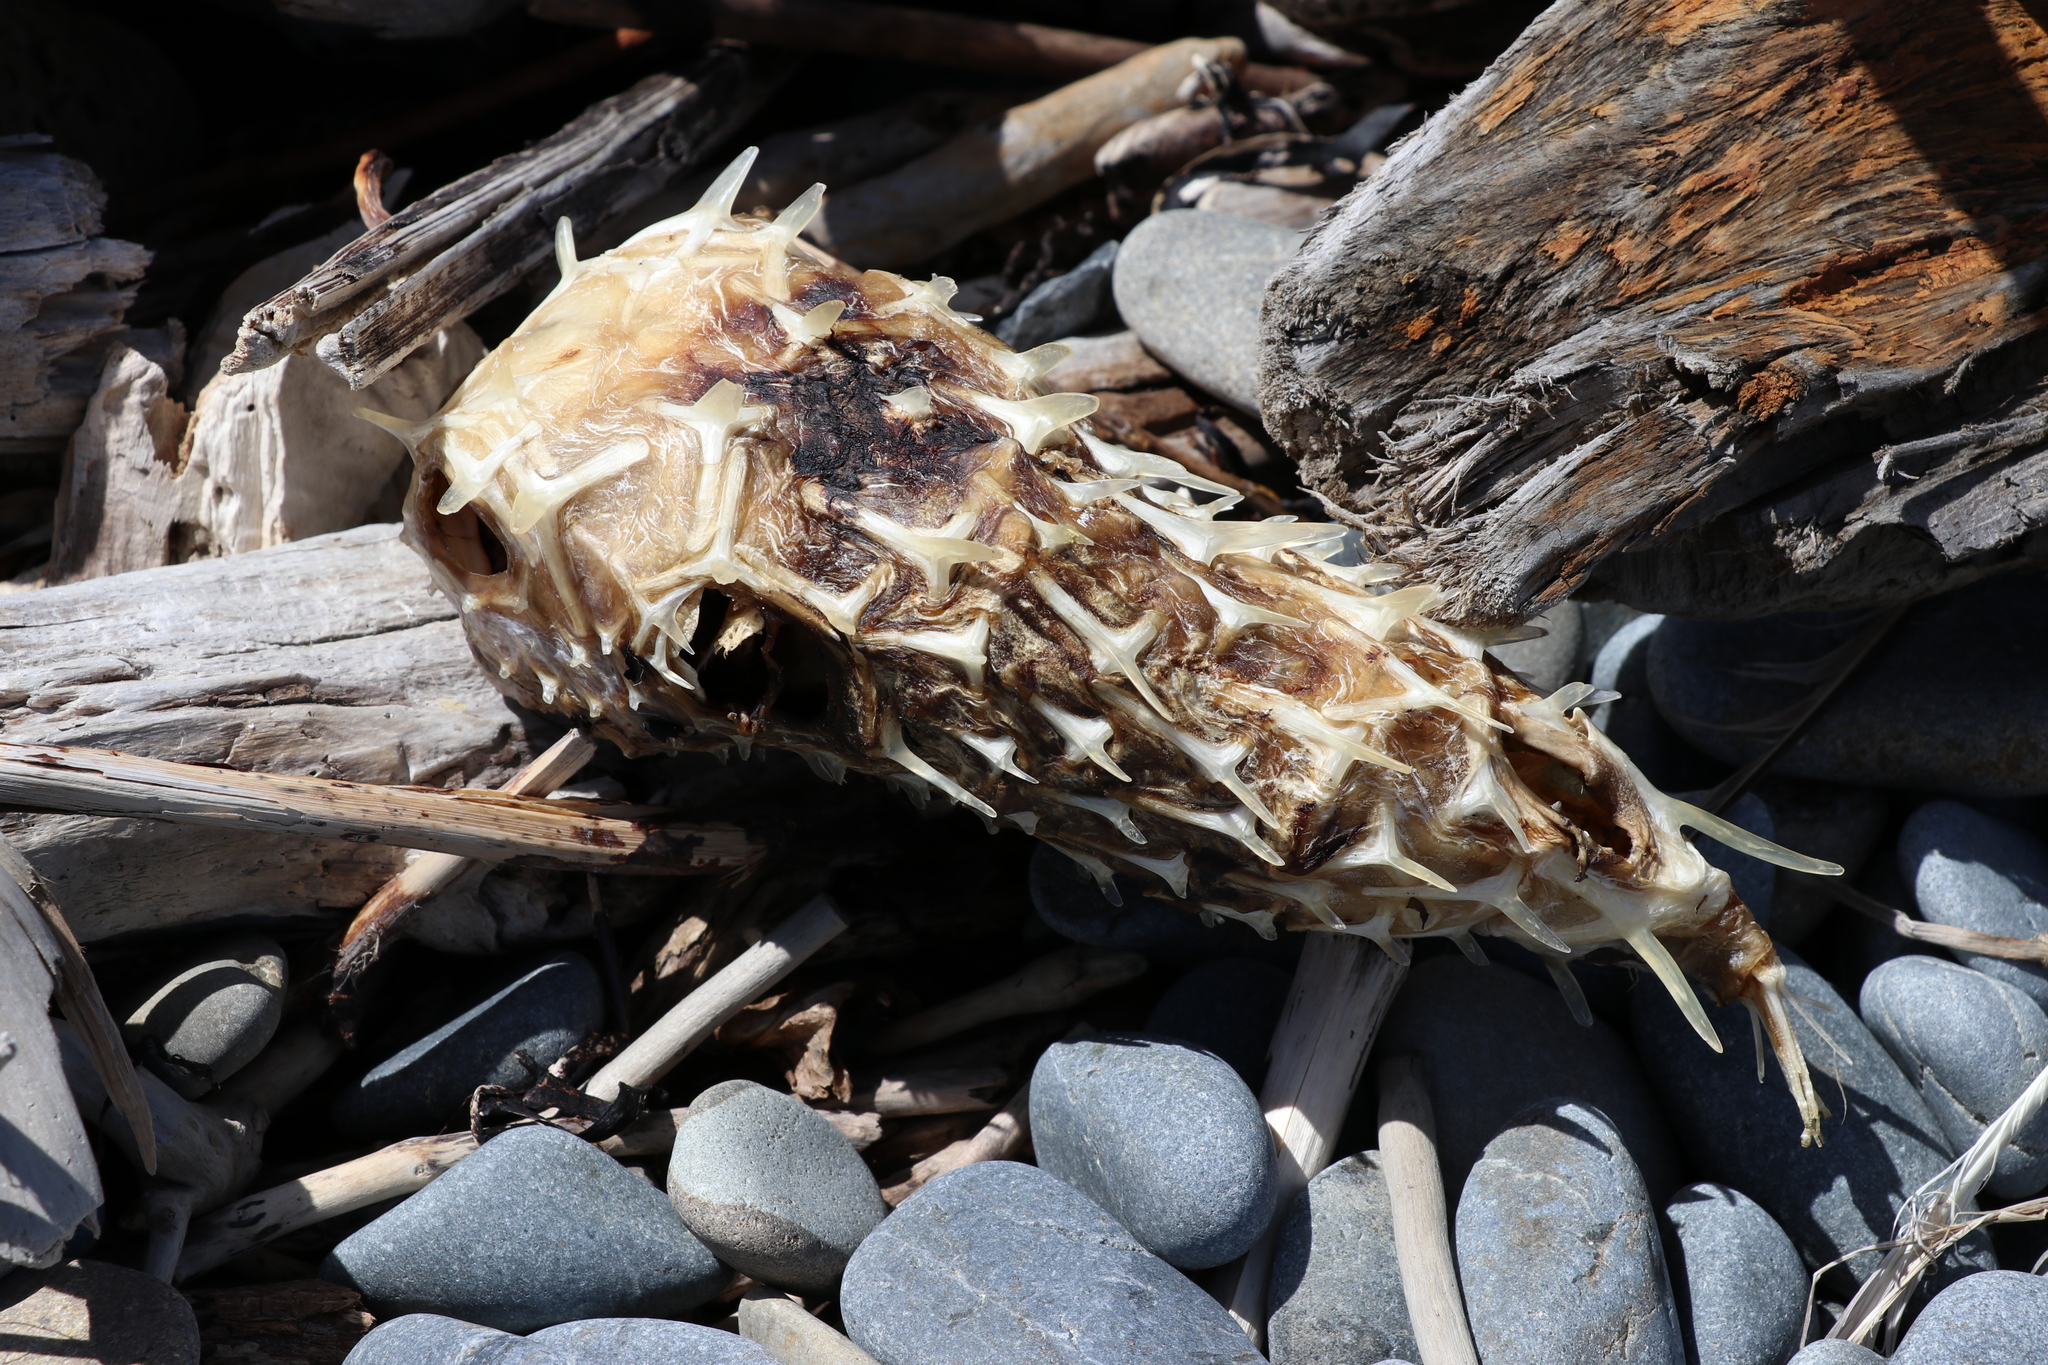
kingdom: Animalia
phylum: Chordata
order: Tetraodontiformes
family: Diodontidae
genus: Allomycterus
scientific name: Allomycterus pilatus
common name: No common name
